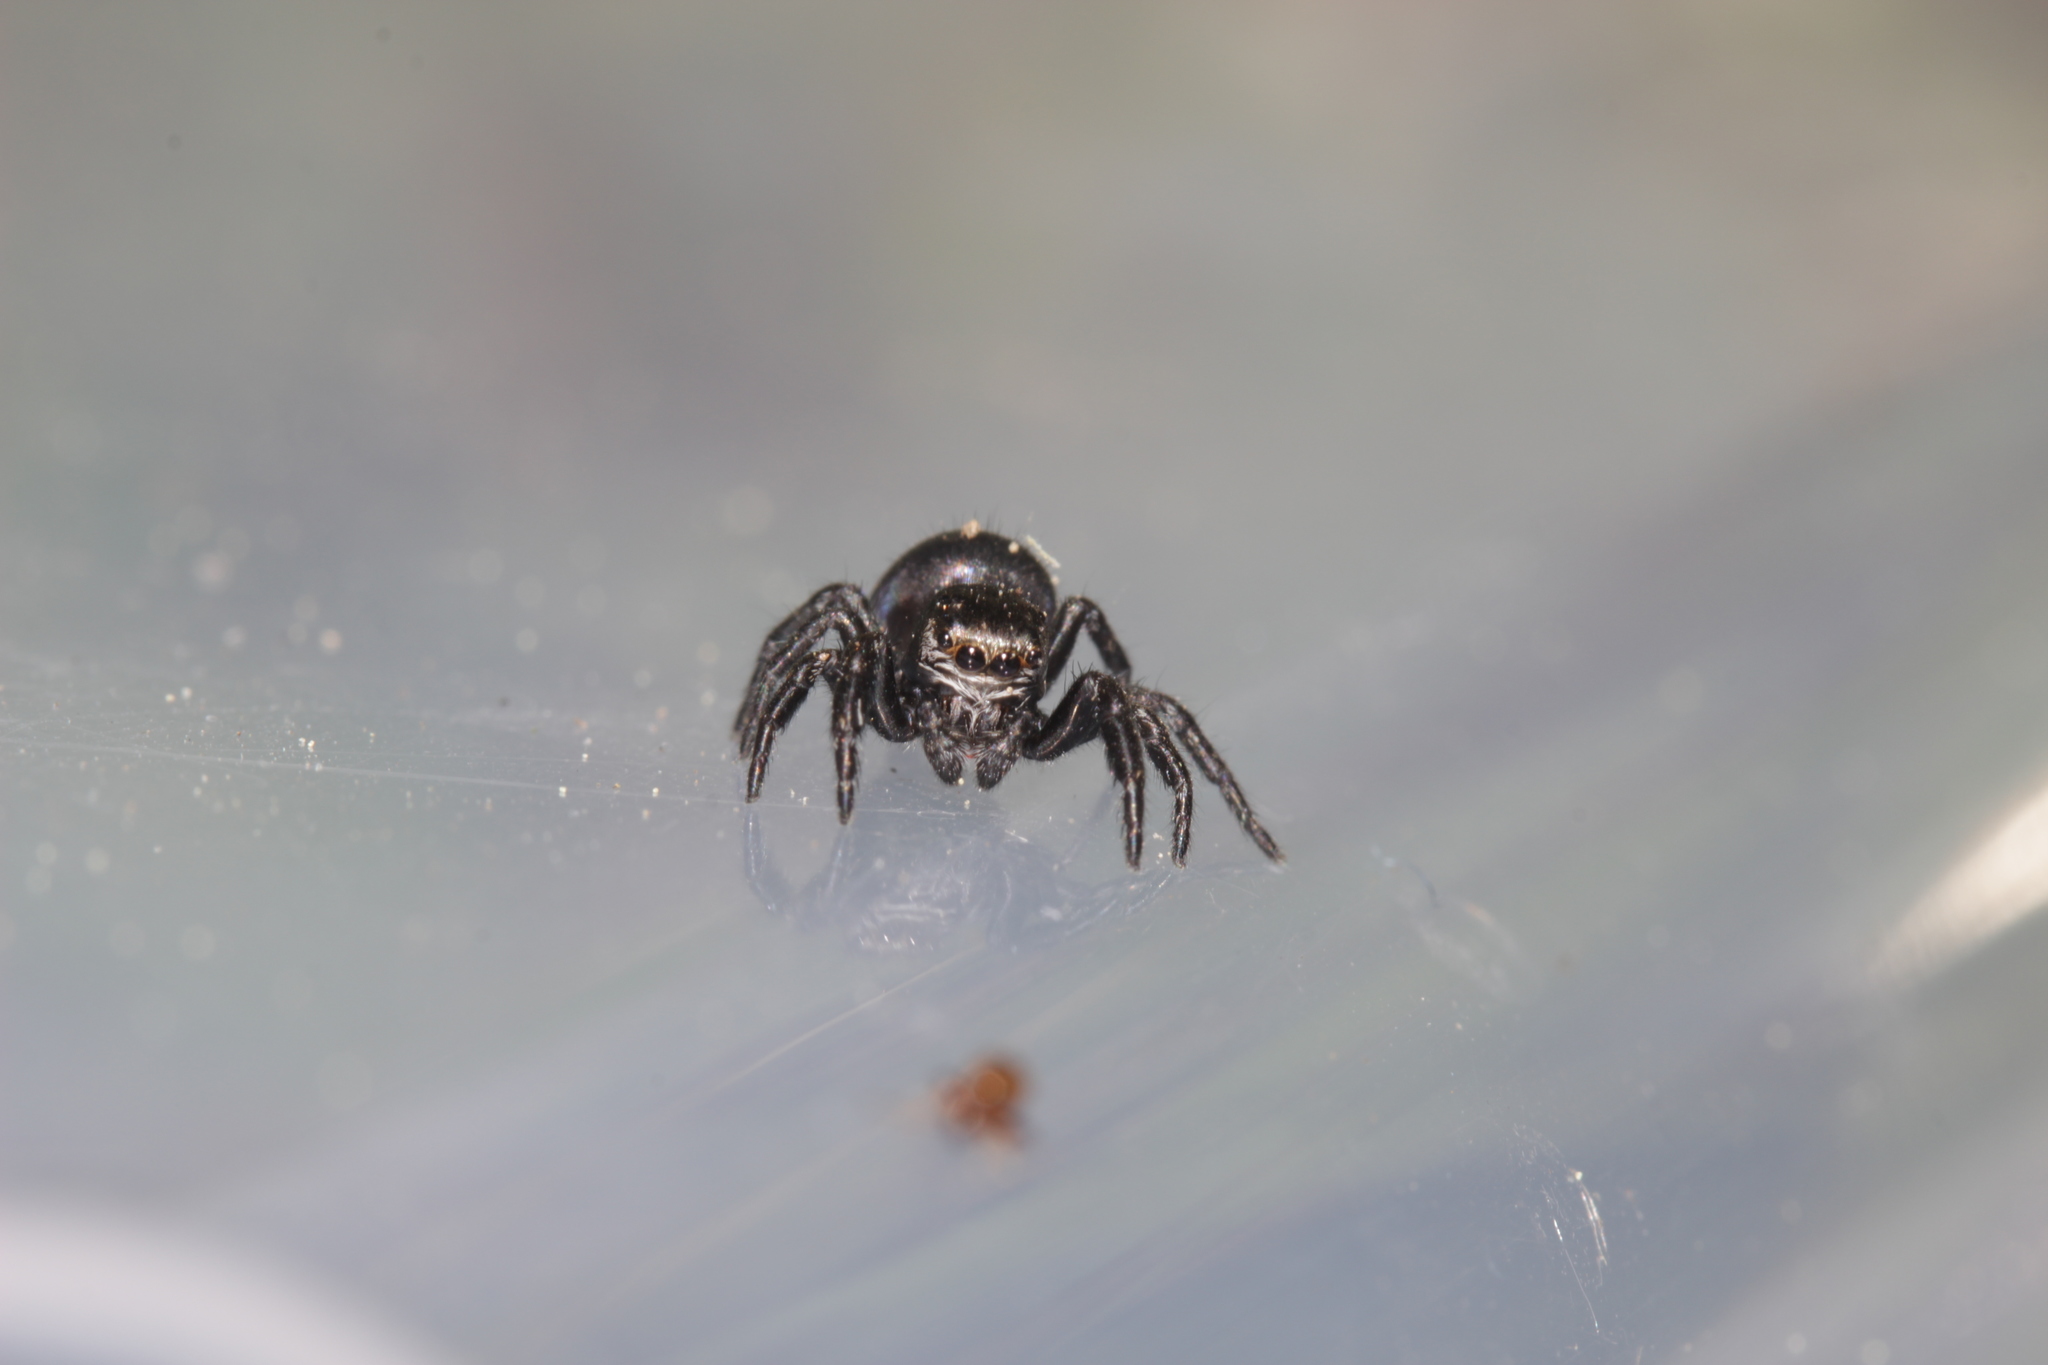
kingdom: Animalia
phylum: Arthropoda
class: Arachnida
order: Araneae
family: Salticidae
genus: Evarcha
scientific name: Evarcha arcuata
